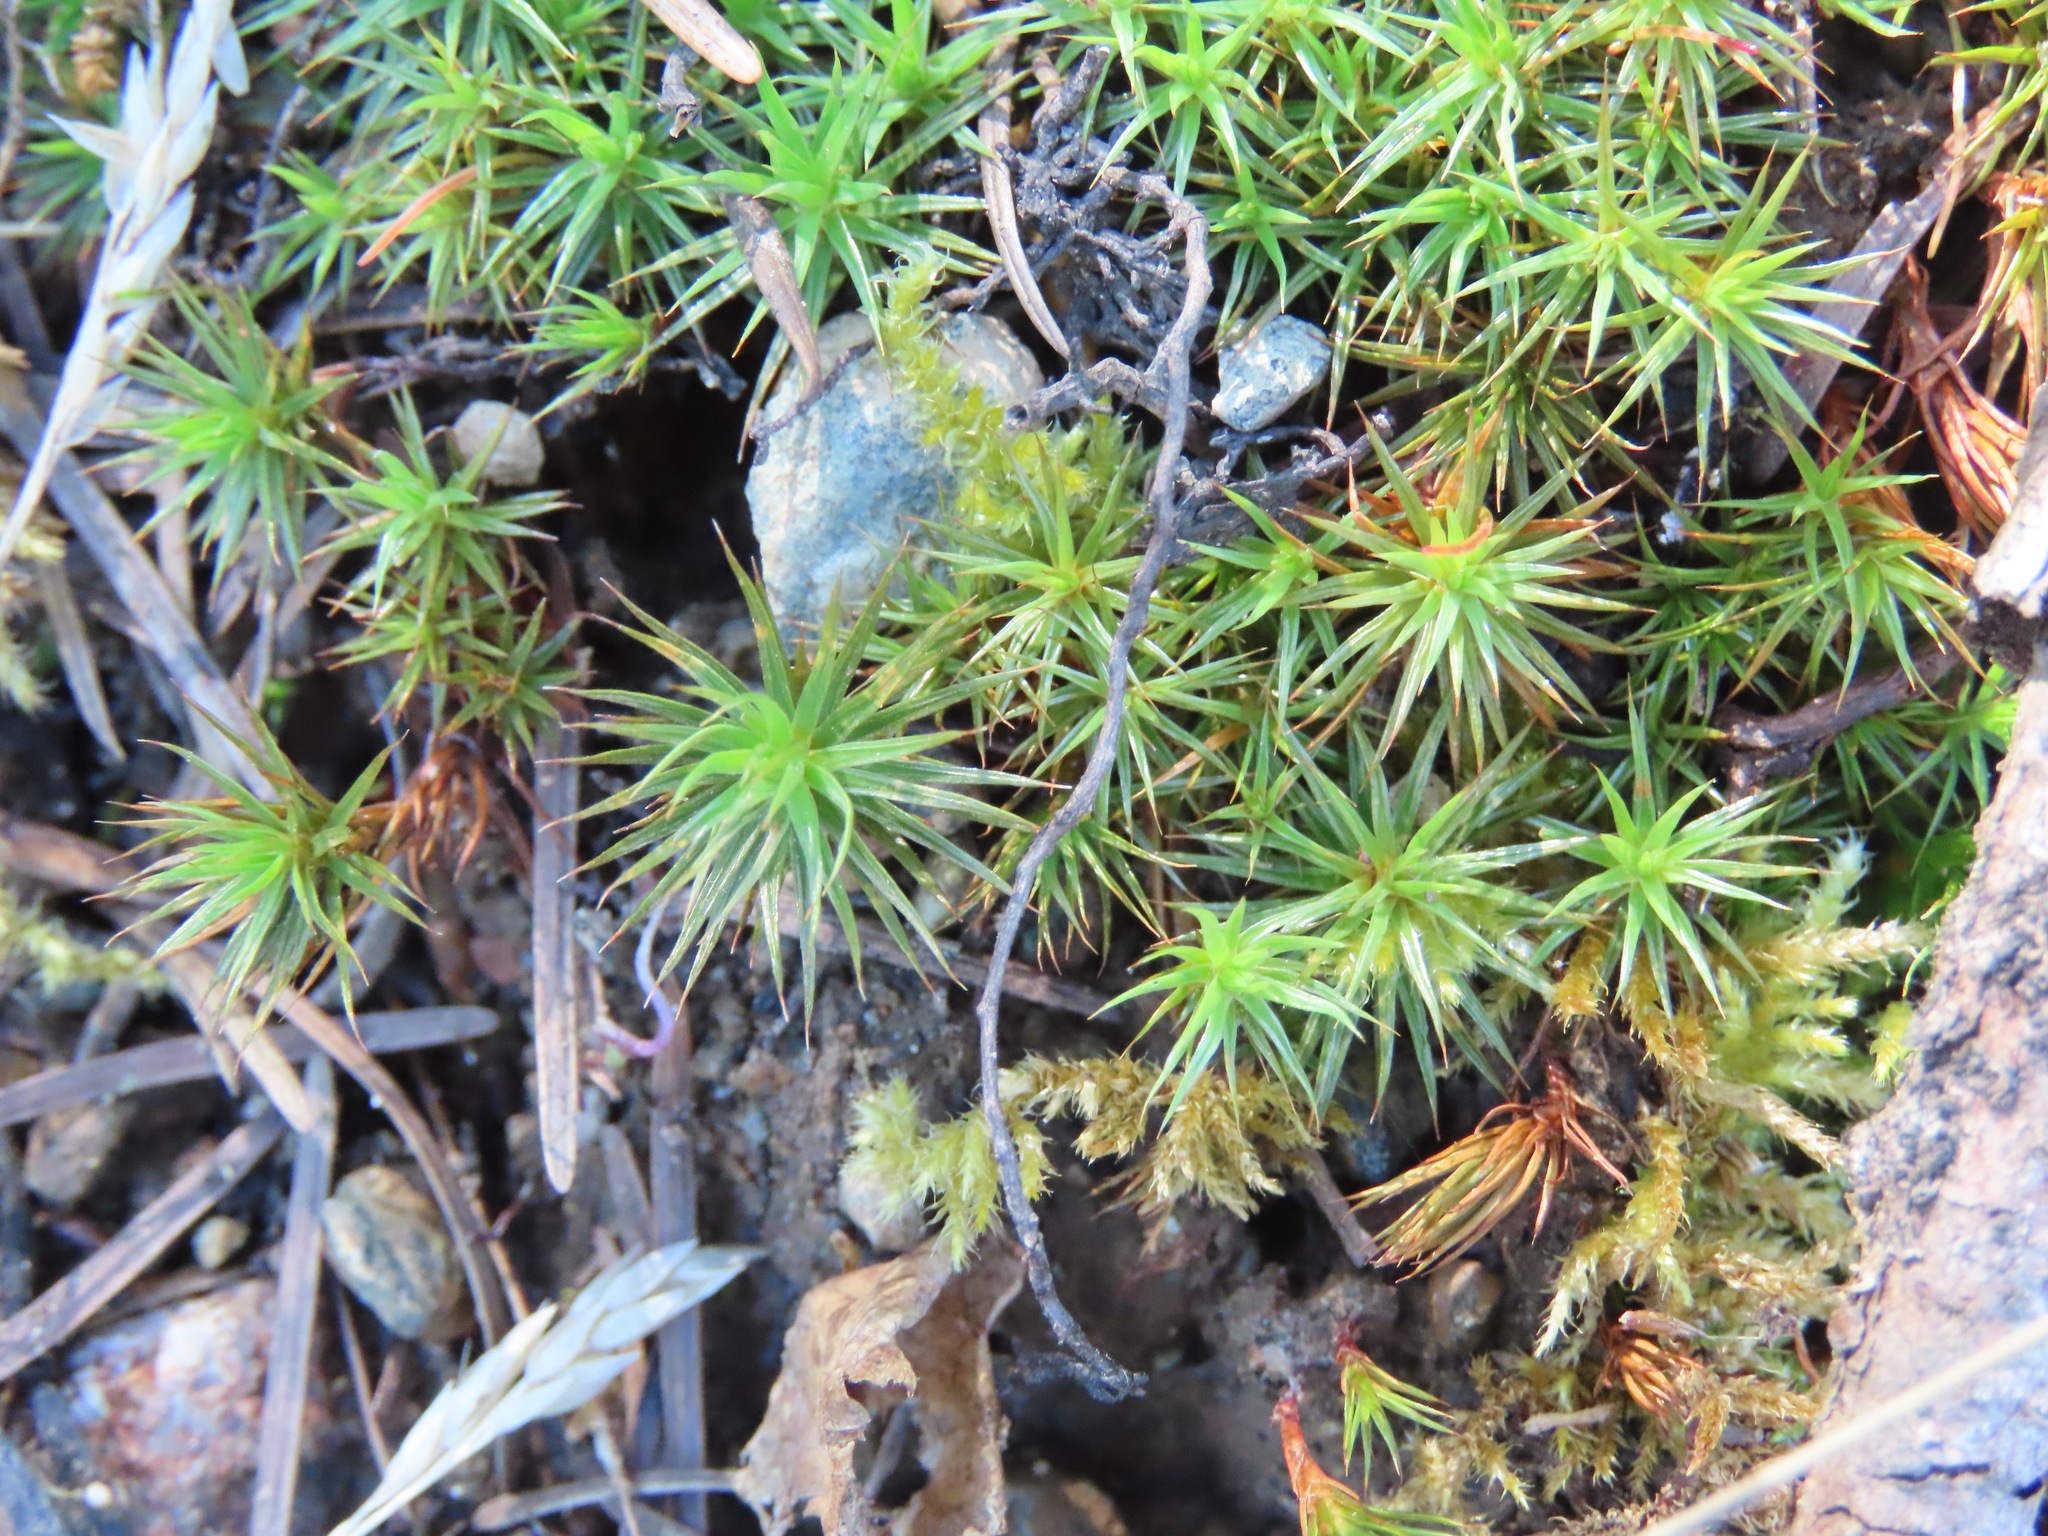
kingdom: Plantae
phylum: Bryophyta
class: Polytrichopsida
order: Polytrichales
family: Polytrichaceae
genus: Polytrichum
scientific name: Polytrichum juniperinum
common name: Juniper haircap moss
